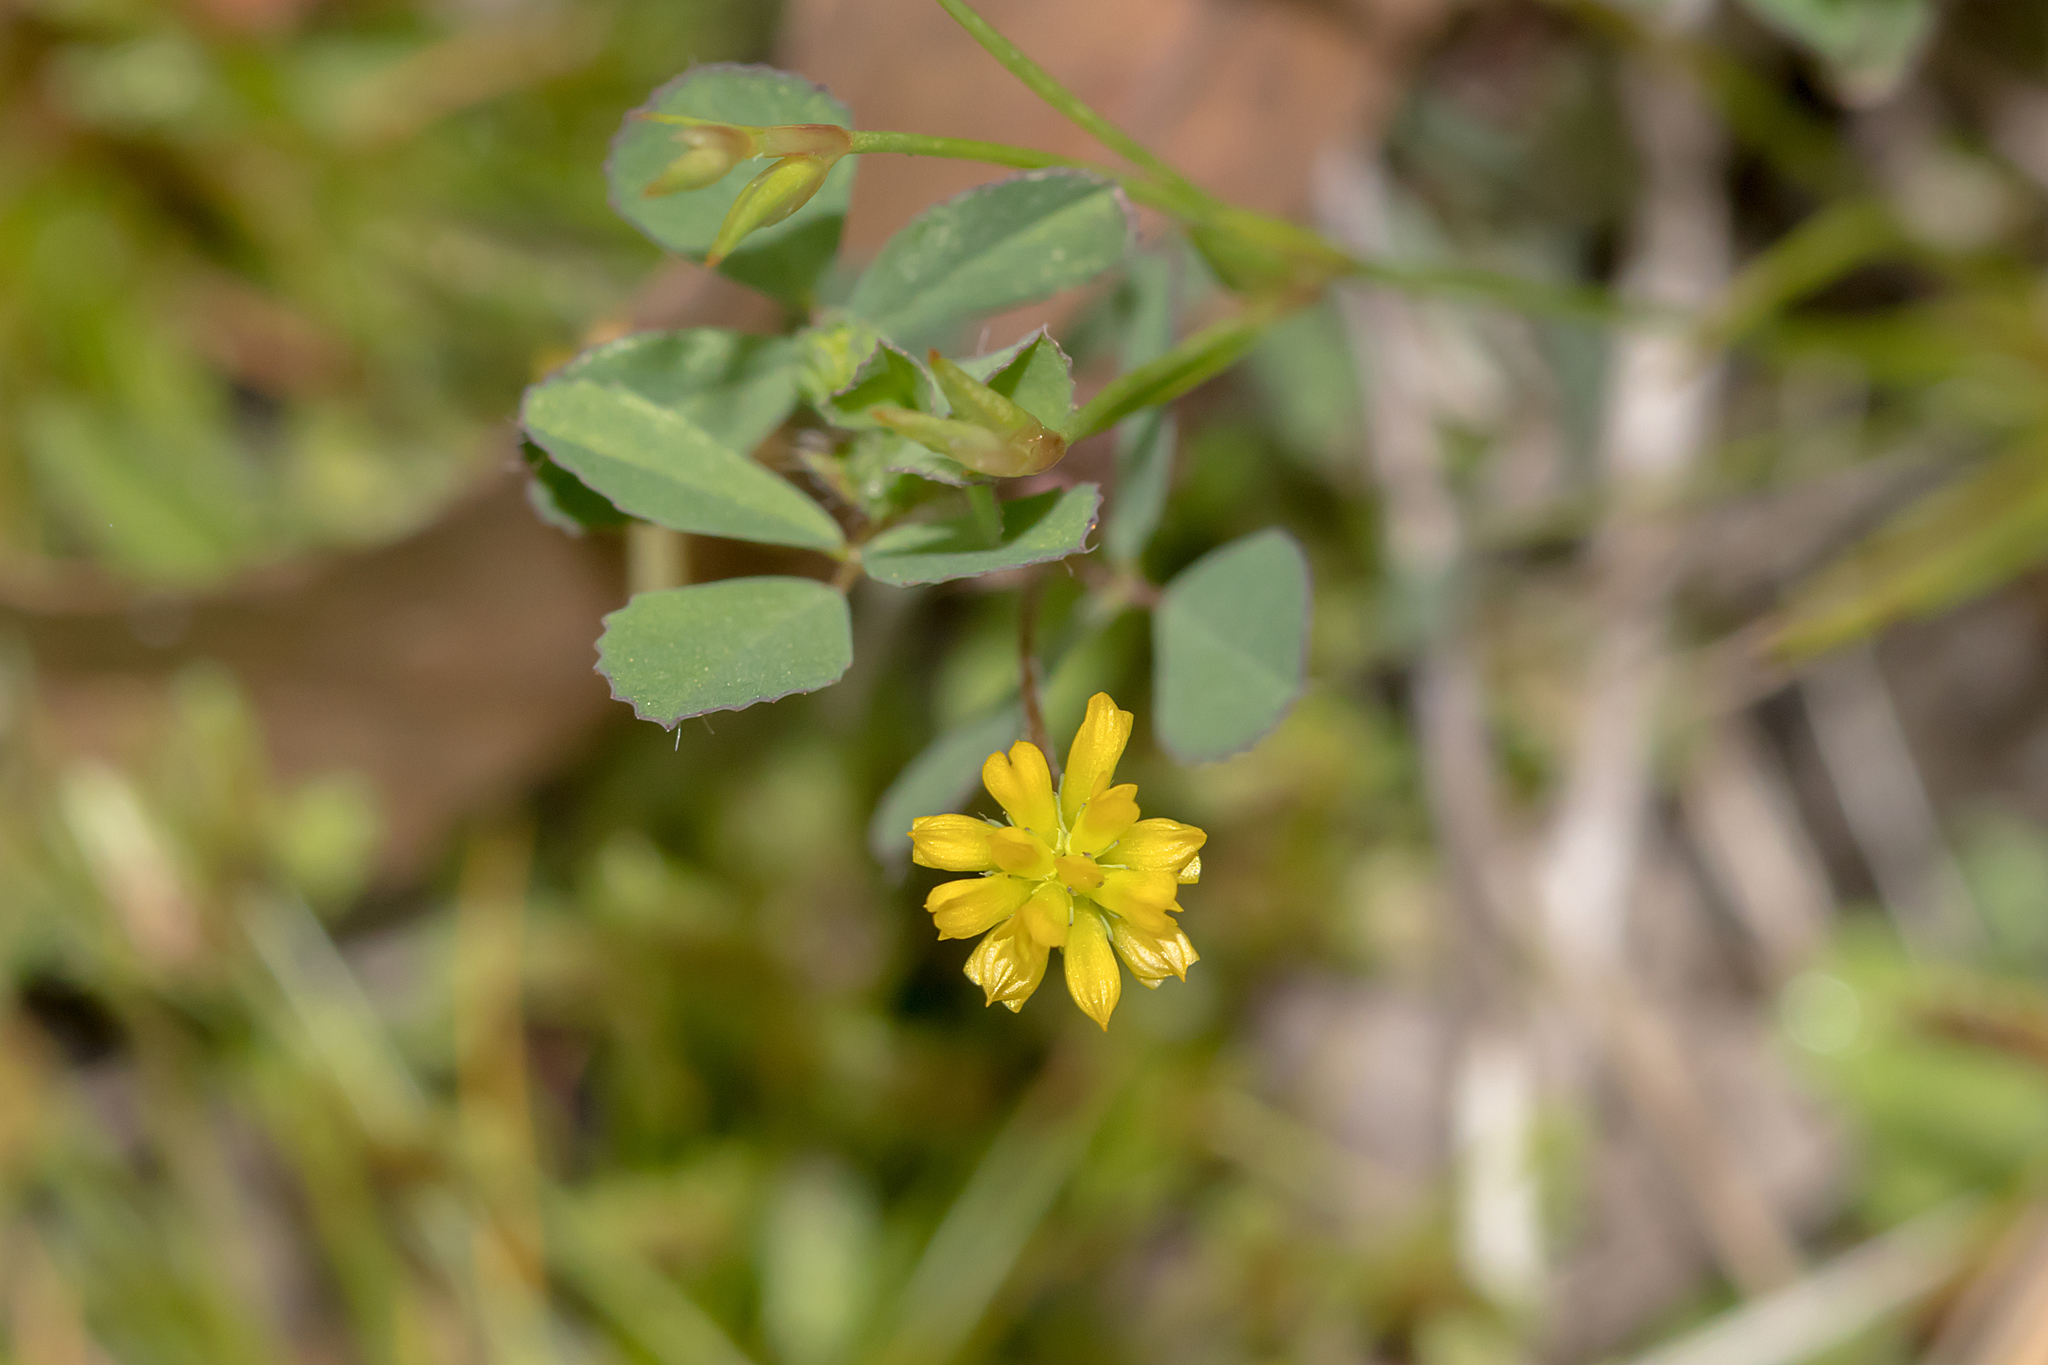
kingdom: Plantae
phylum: Tracheophyta
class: Magnoliopsida
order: Fabales
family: Fabaceae
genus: Trifolium
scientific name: Trifolium dubium
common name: Suckling clover
